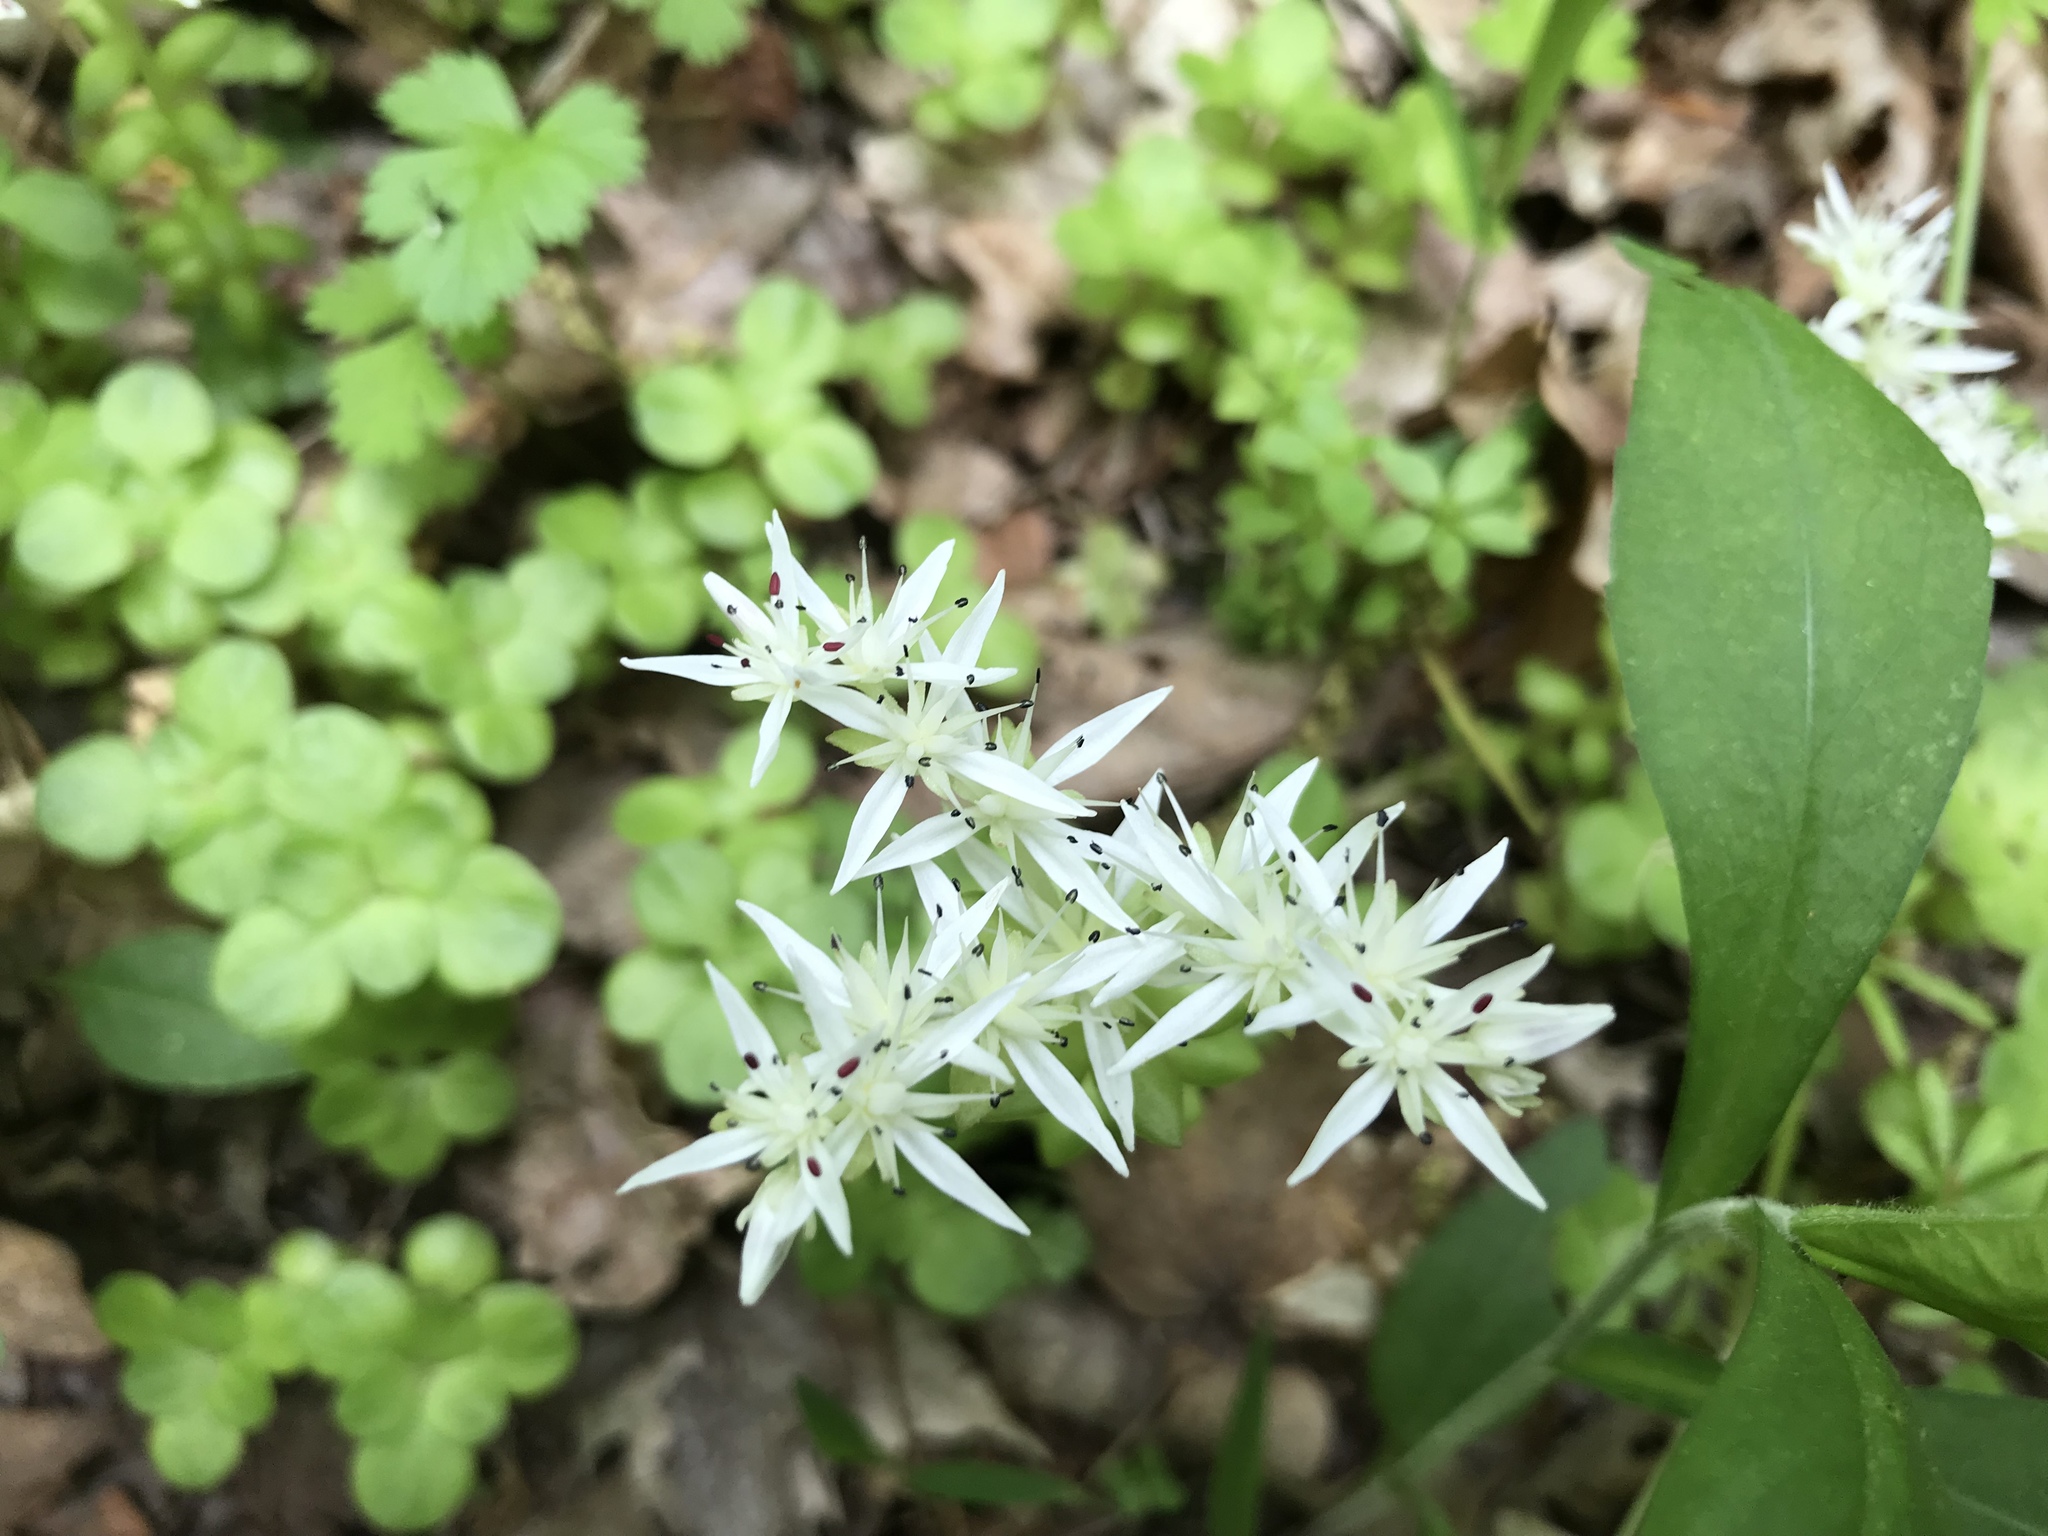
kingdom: Plantae
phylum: Tracheophyta
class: Magnoliopsida
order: Saxifragales
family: Crassulaceae
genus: Sedum
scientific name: Sedum ternatum
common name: Wild stonecrop
